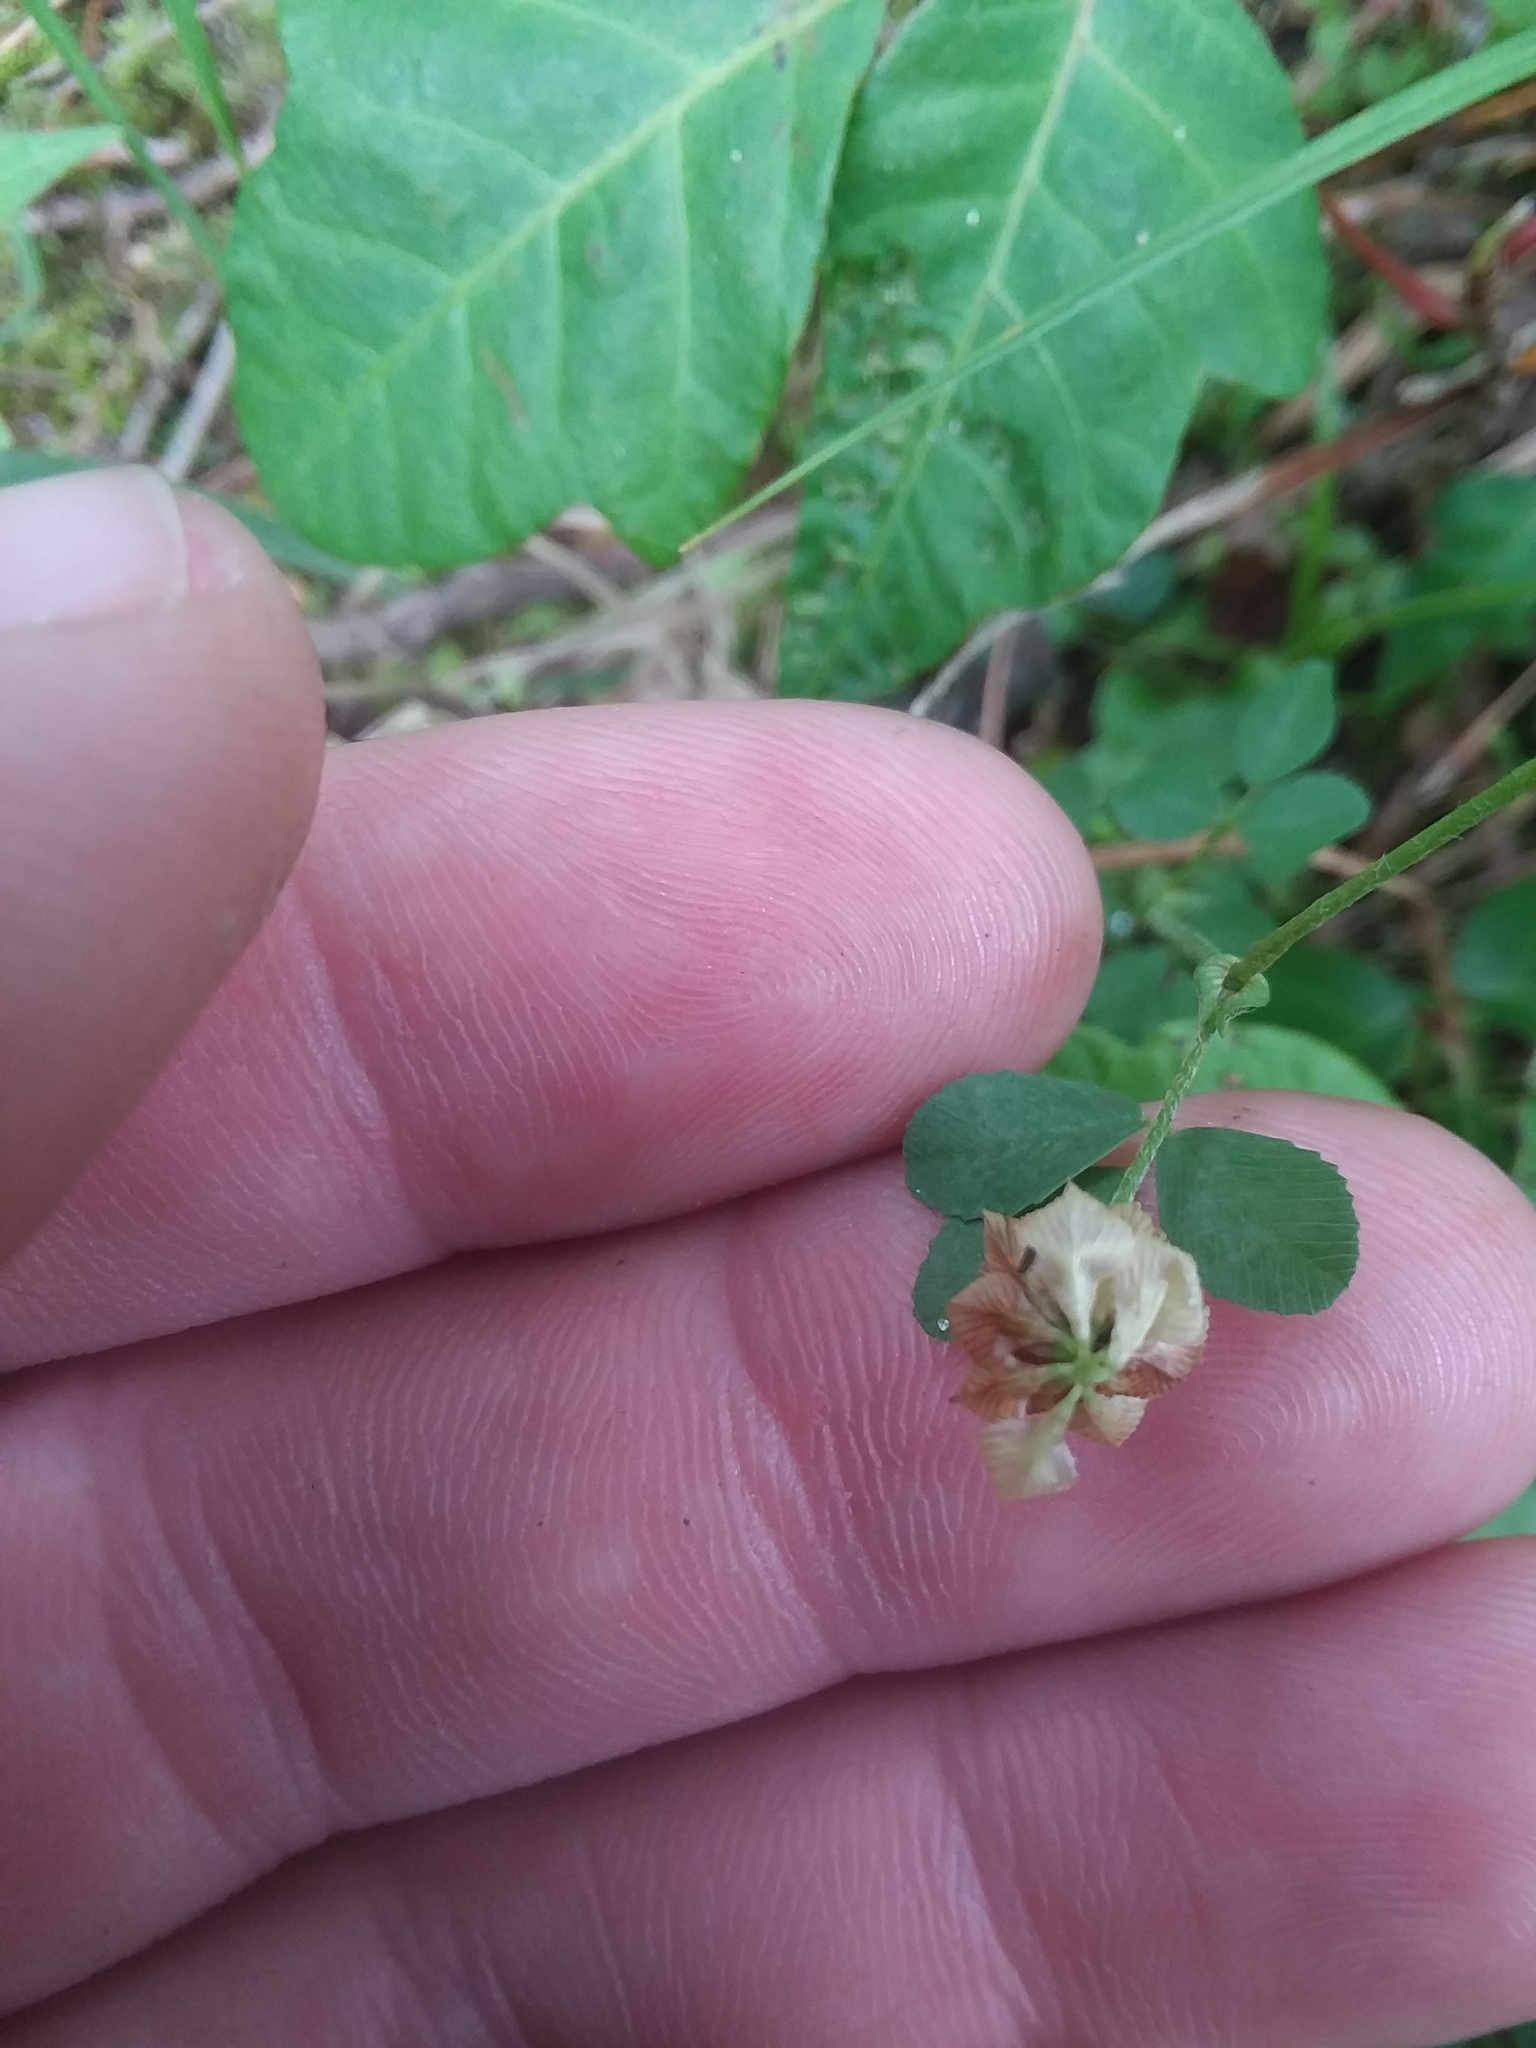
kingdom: Plantae
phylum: Tracheophyta
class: Magnoliopsida
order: Fabales
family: Fabaceae
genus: Trifolium
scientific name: Trifolium campestre
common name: Field clover
